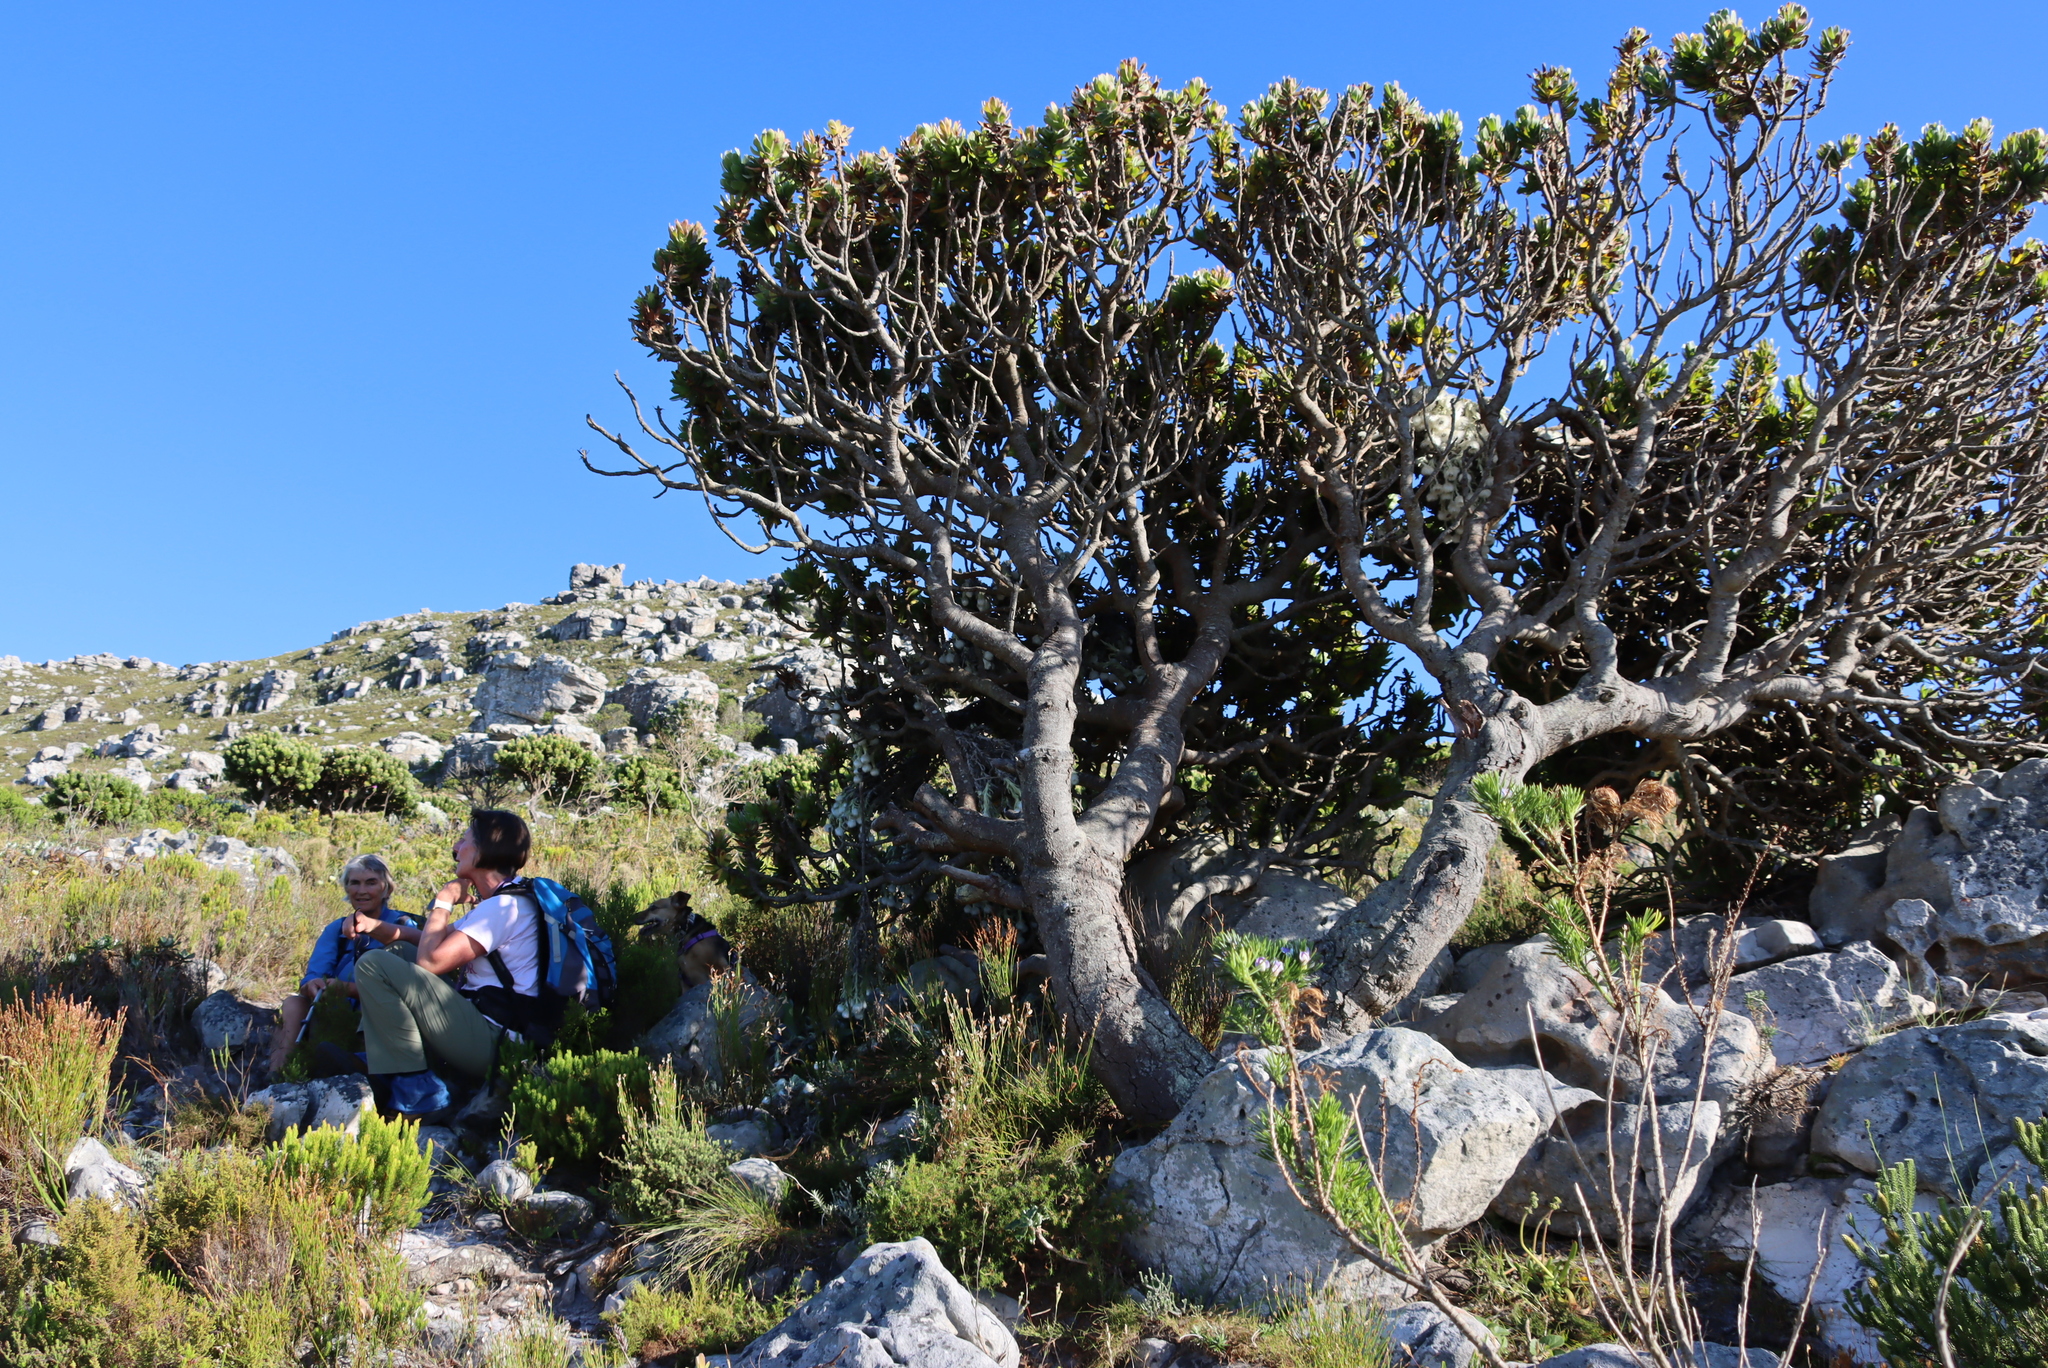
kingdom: Plantae
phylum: Tracheophyta
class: Magnoliopsida
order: Proteales
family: Proteaceae
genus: Mimetes
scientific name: Mimetes fimbriifolius
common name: Fringed bottlebrush
